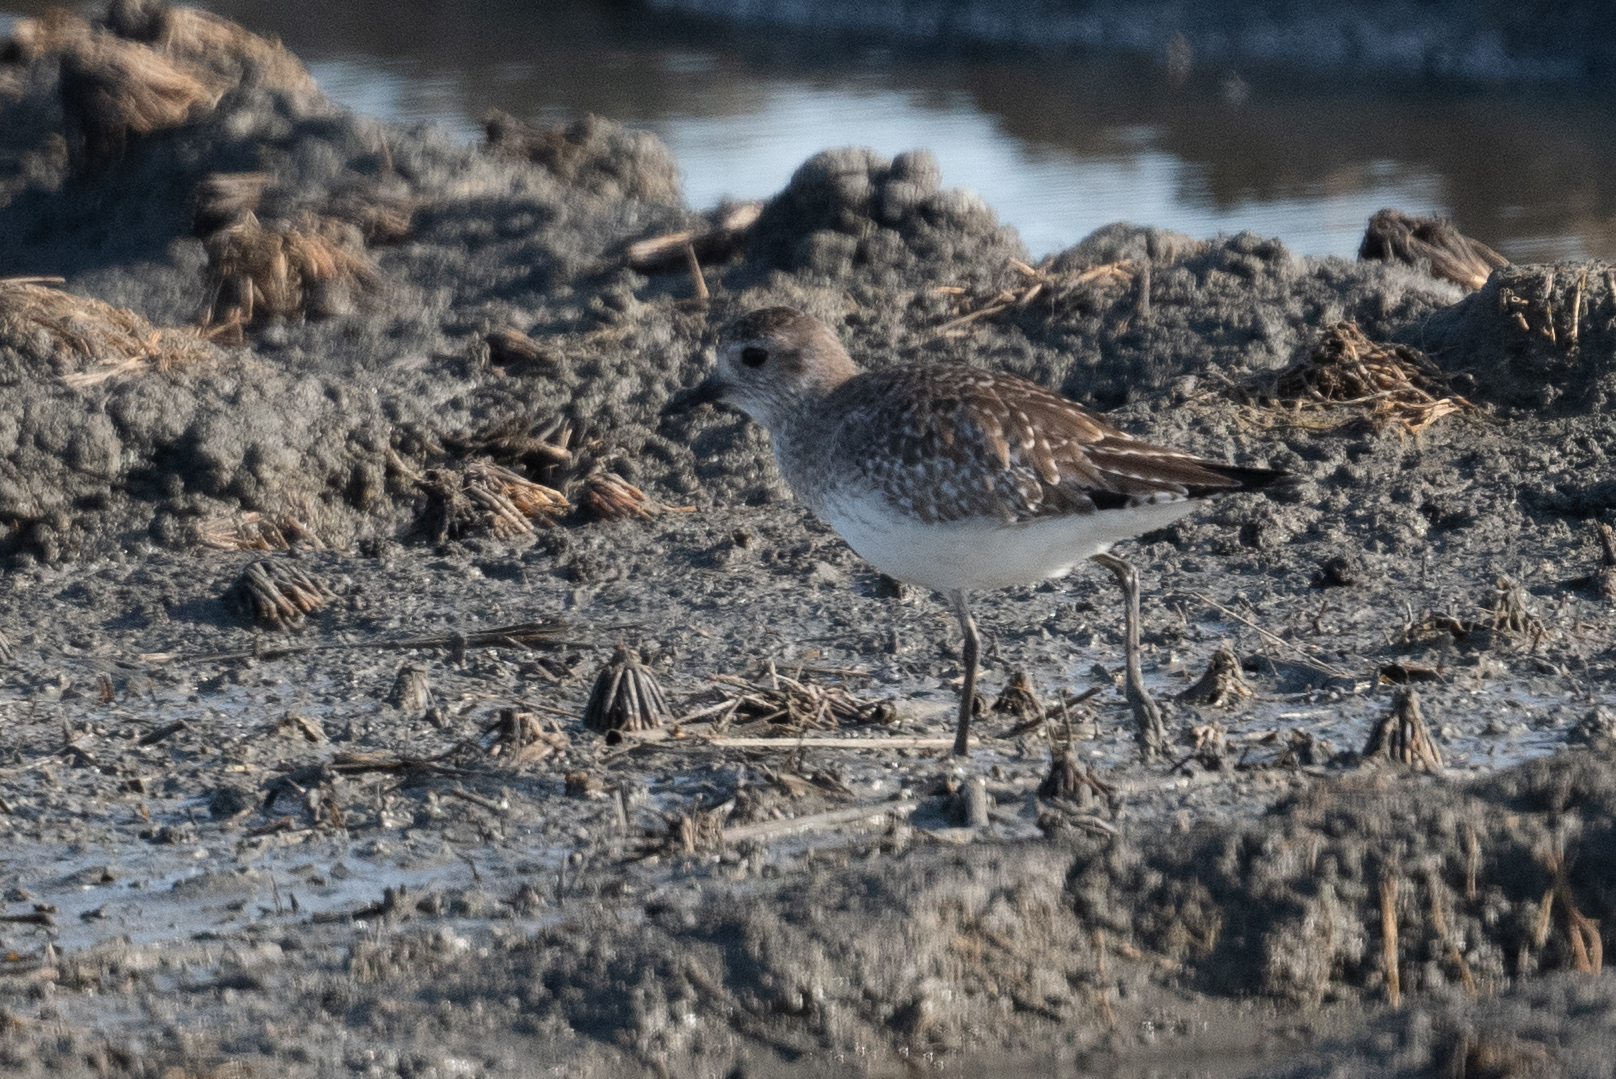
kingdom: Animalia
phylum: Chordata
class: Aves
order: Charadriiformes
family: Charadriidae
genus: Pluvialis
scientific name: Pluvialis squatarola
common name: Grey plover
